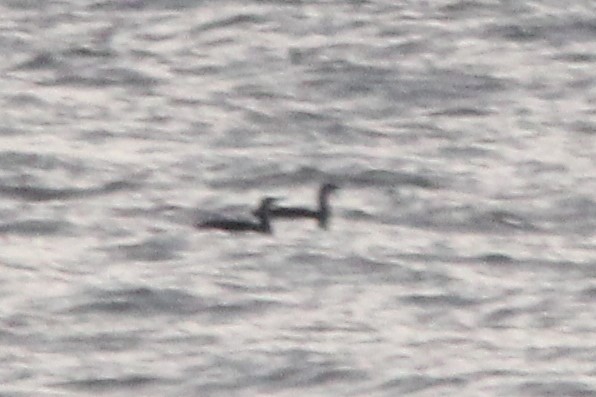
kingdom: Animalia
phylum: Chordata
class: Aves
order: Gaviiformes
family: Gaviidae
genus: Gavia
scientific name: Gavia stellata
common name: Red-throated loon
